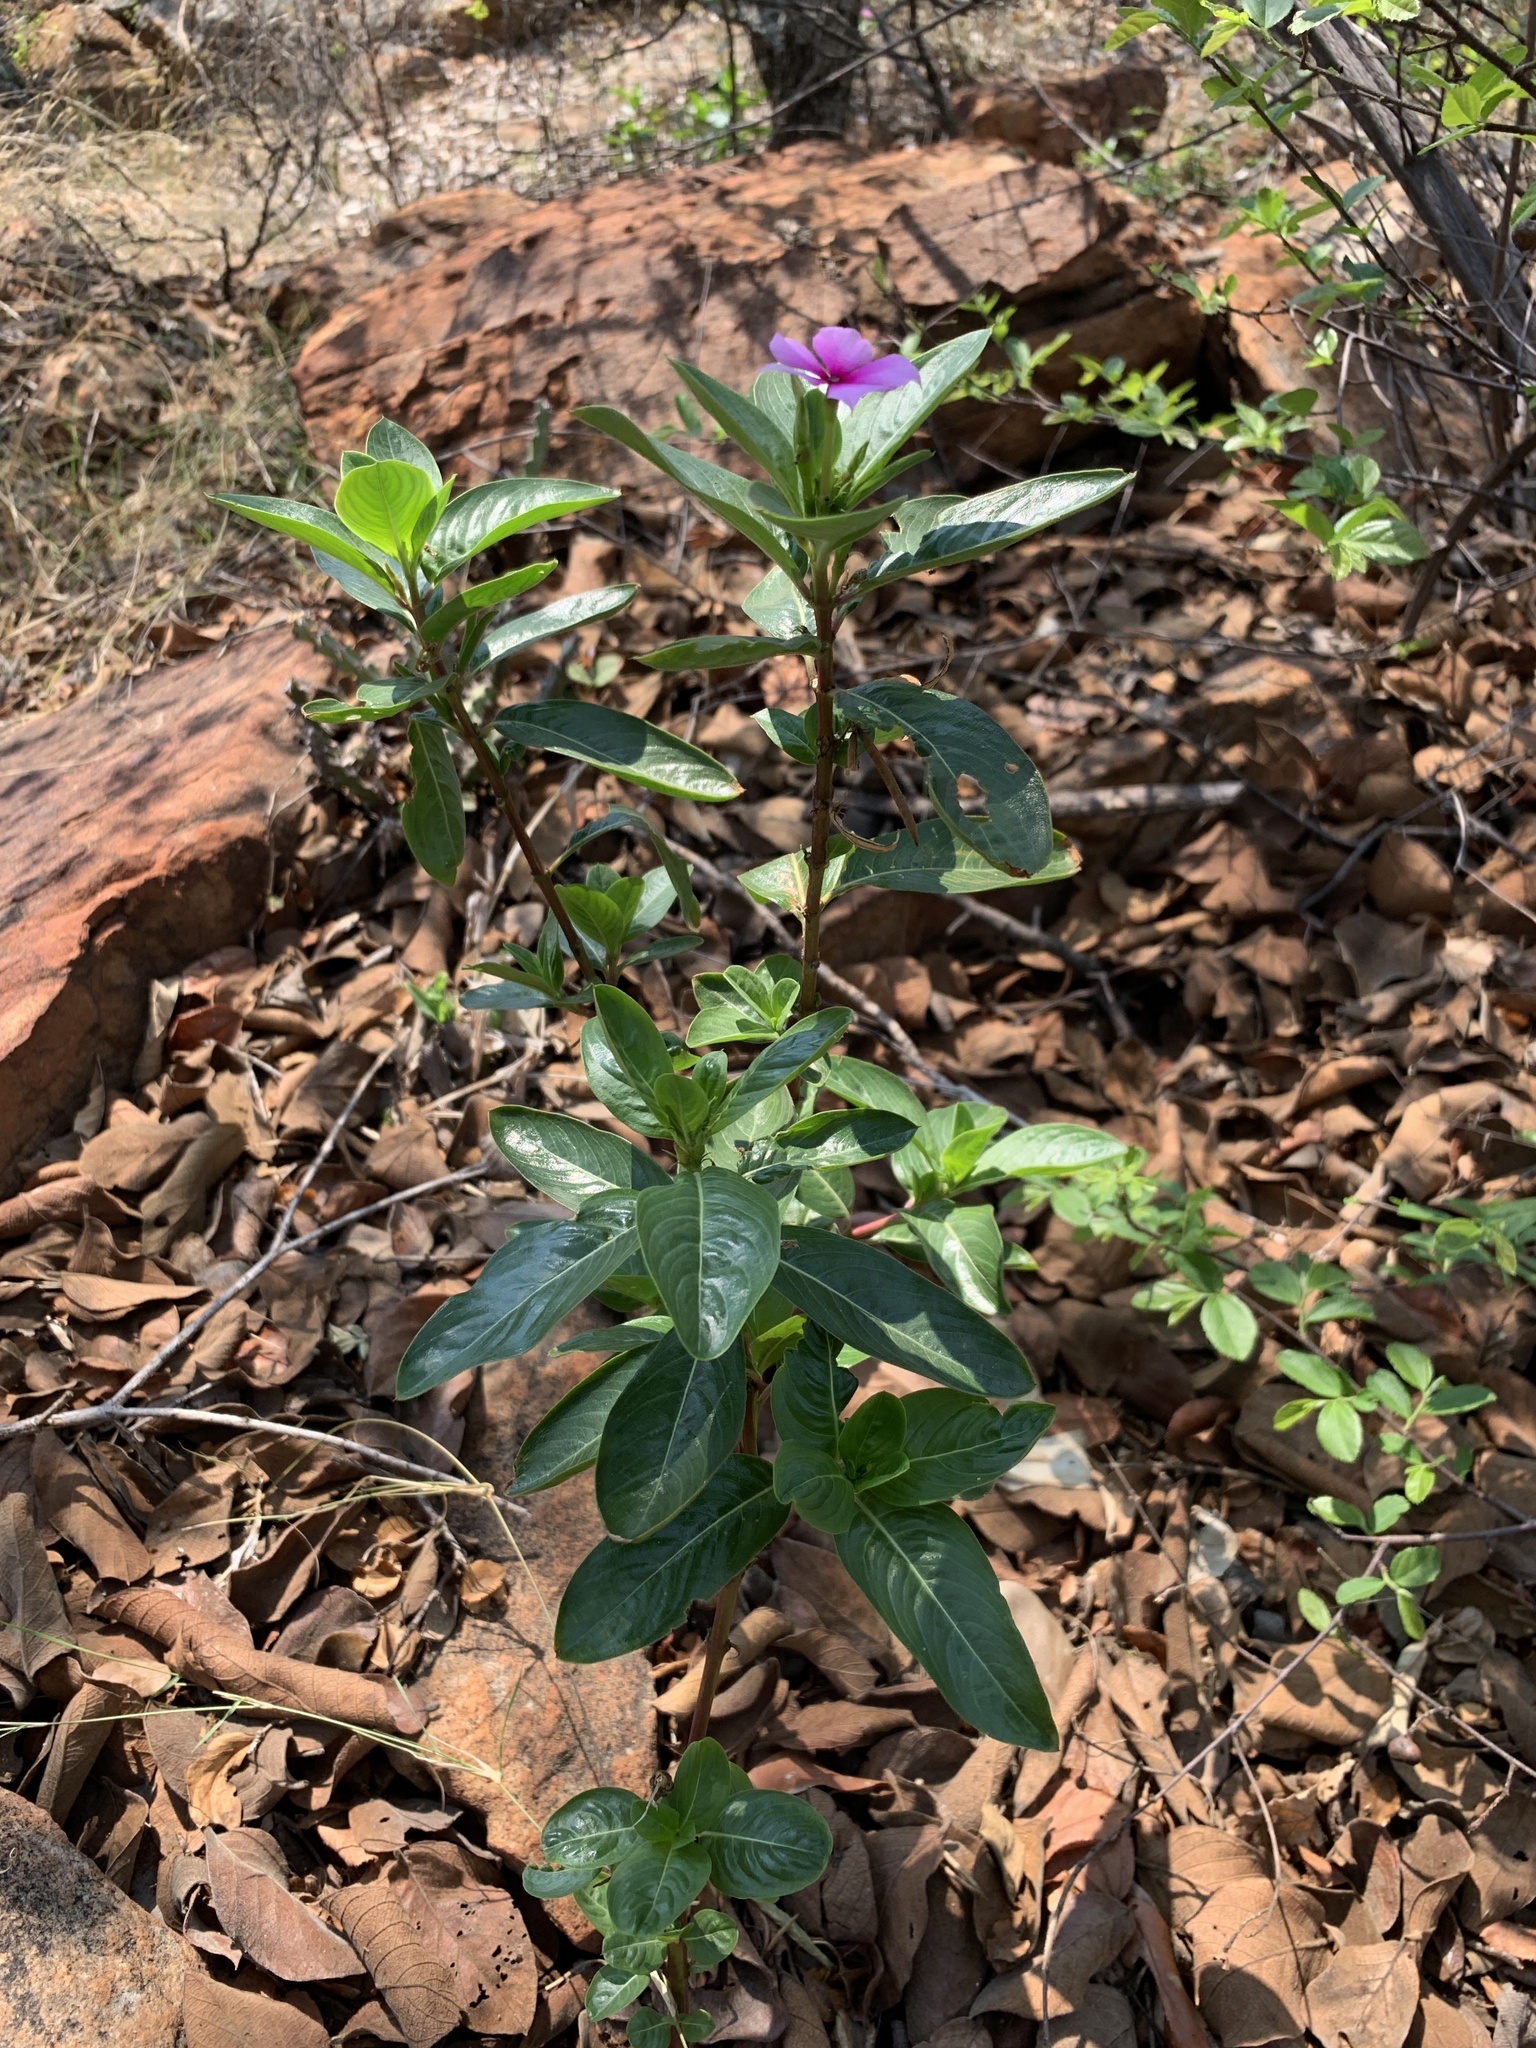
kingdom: Plantae
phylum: Tracheophyta
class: Magnoliopsida
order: Gentianales
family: Apocynaceae
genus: Catharanthus
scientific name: Catharanthus roseus
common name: Madagascar periwinkle
